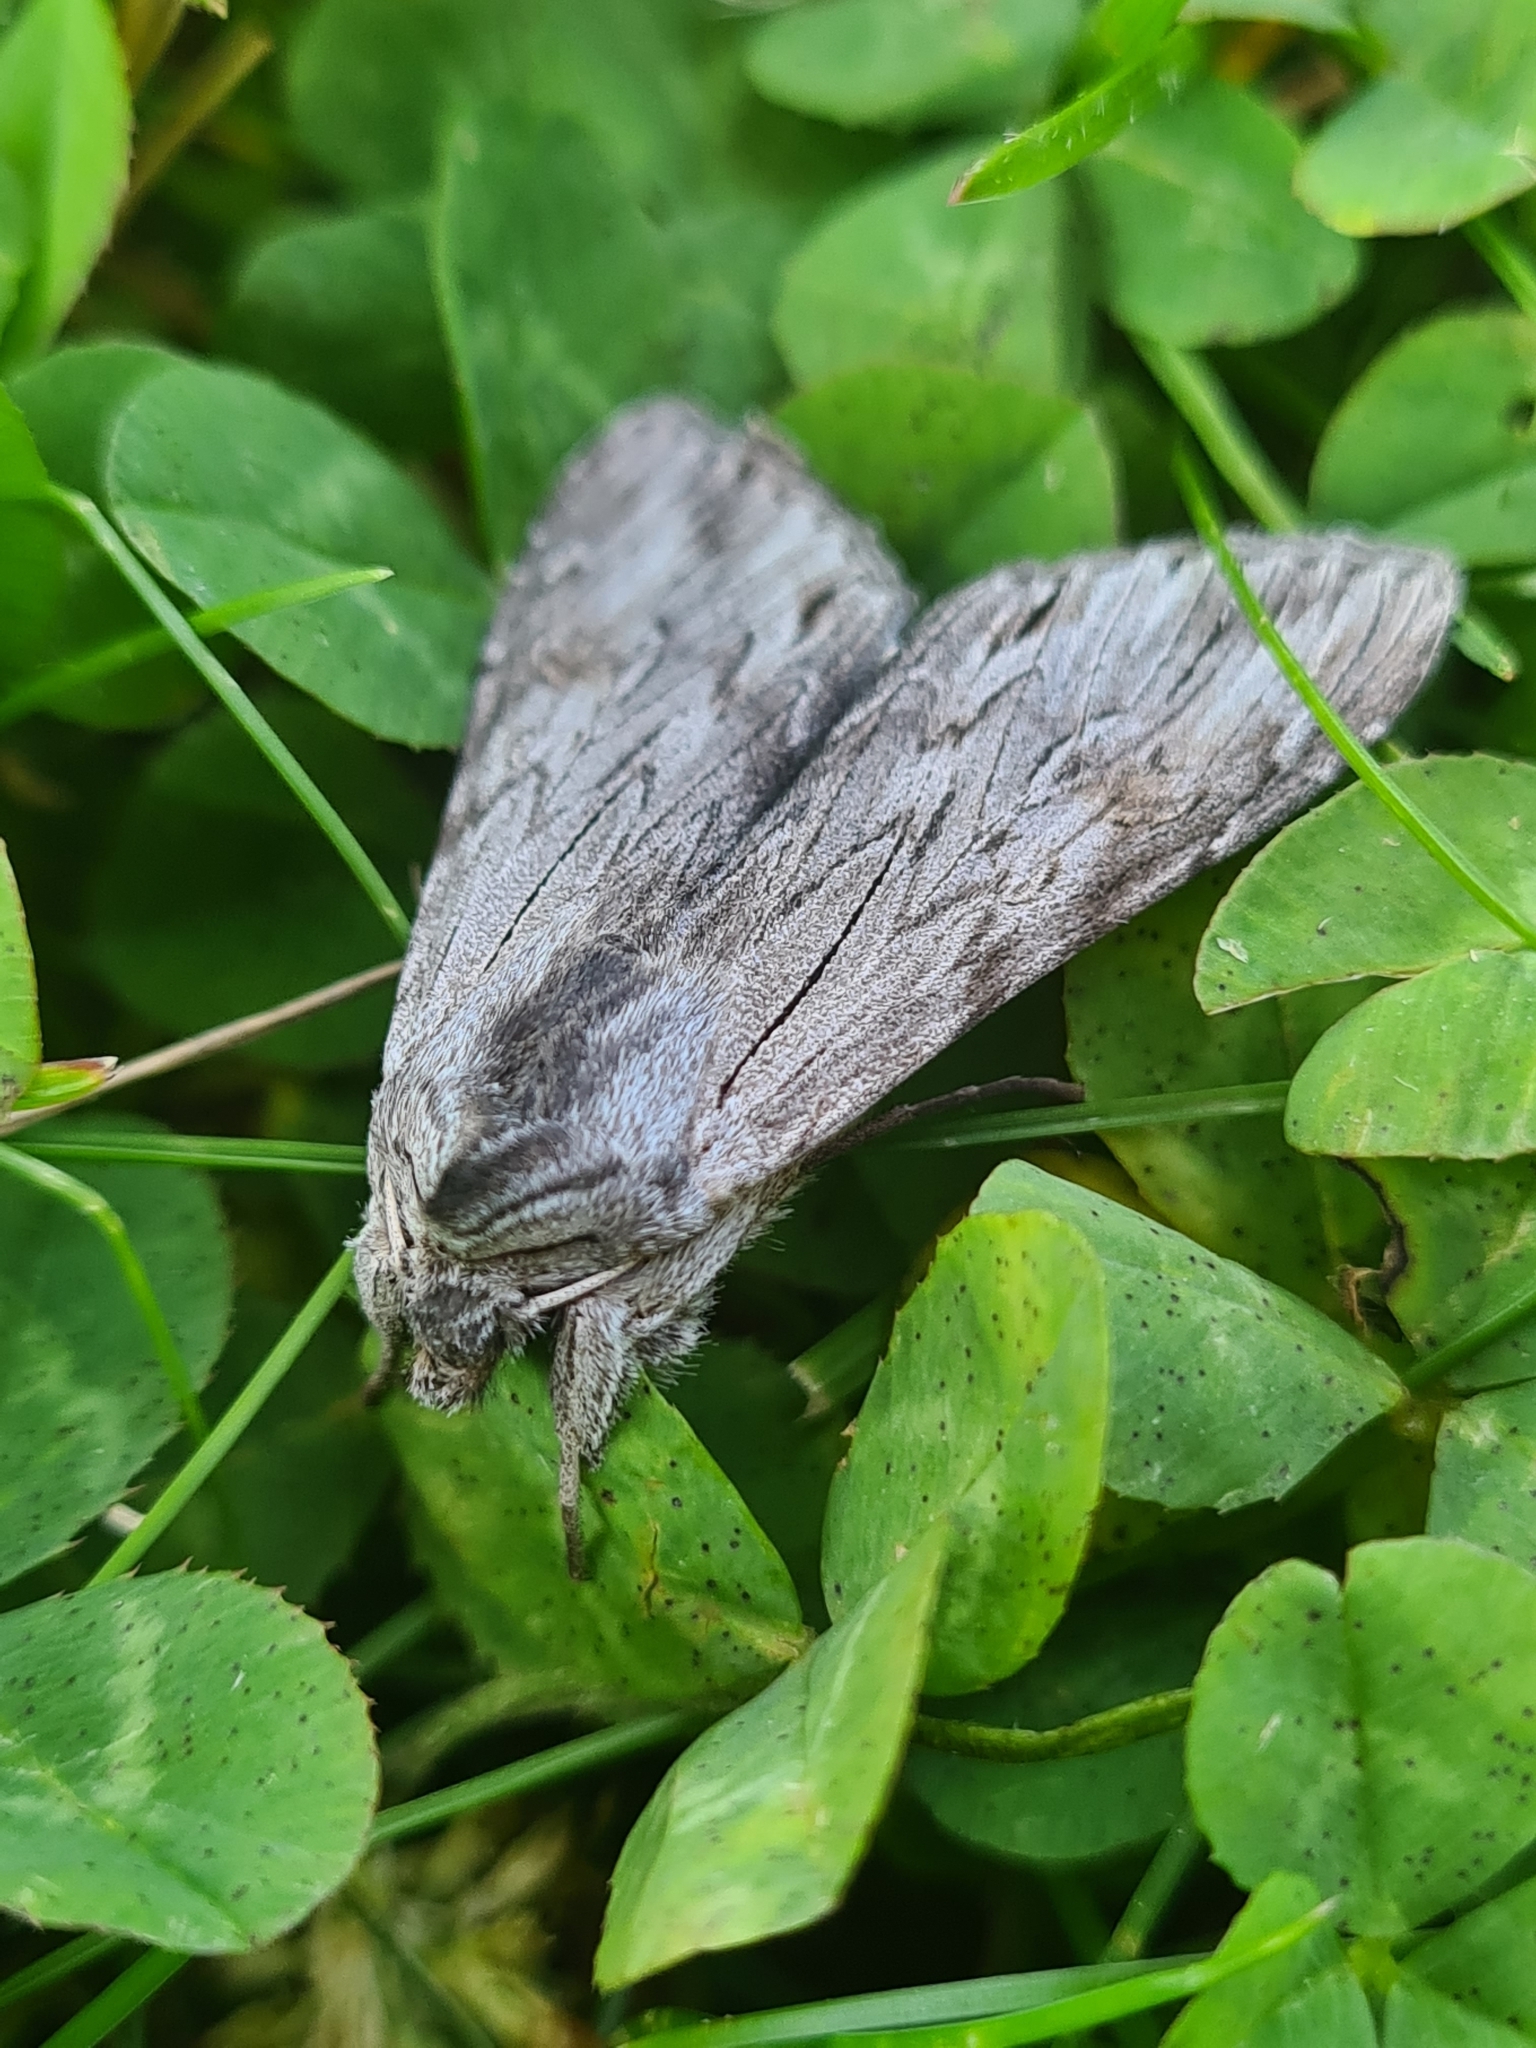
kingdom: Animalia
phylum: Arthropoda
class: Insecta
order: Lepidoptera
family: Noctuidae
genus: Cucullia
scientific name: Cucullia campanulae
